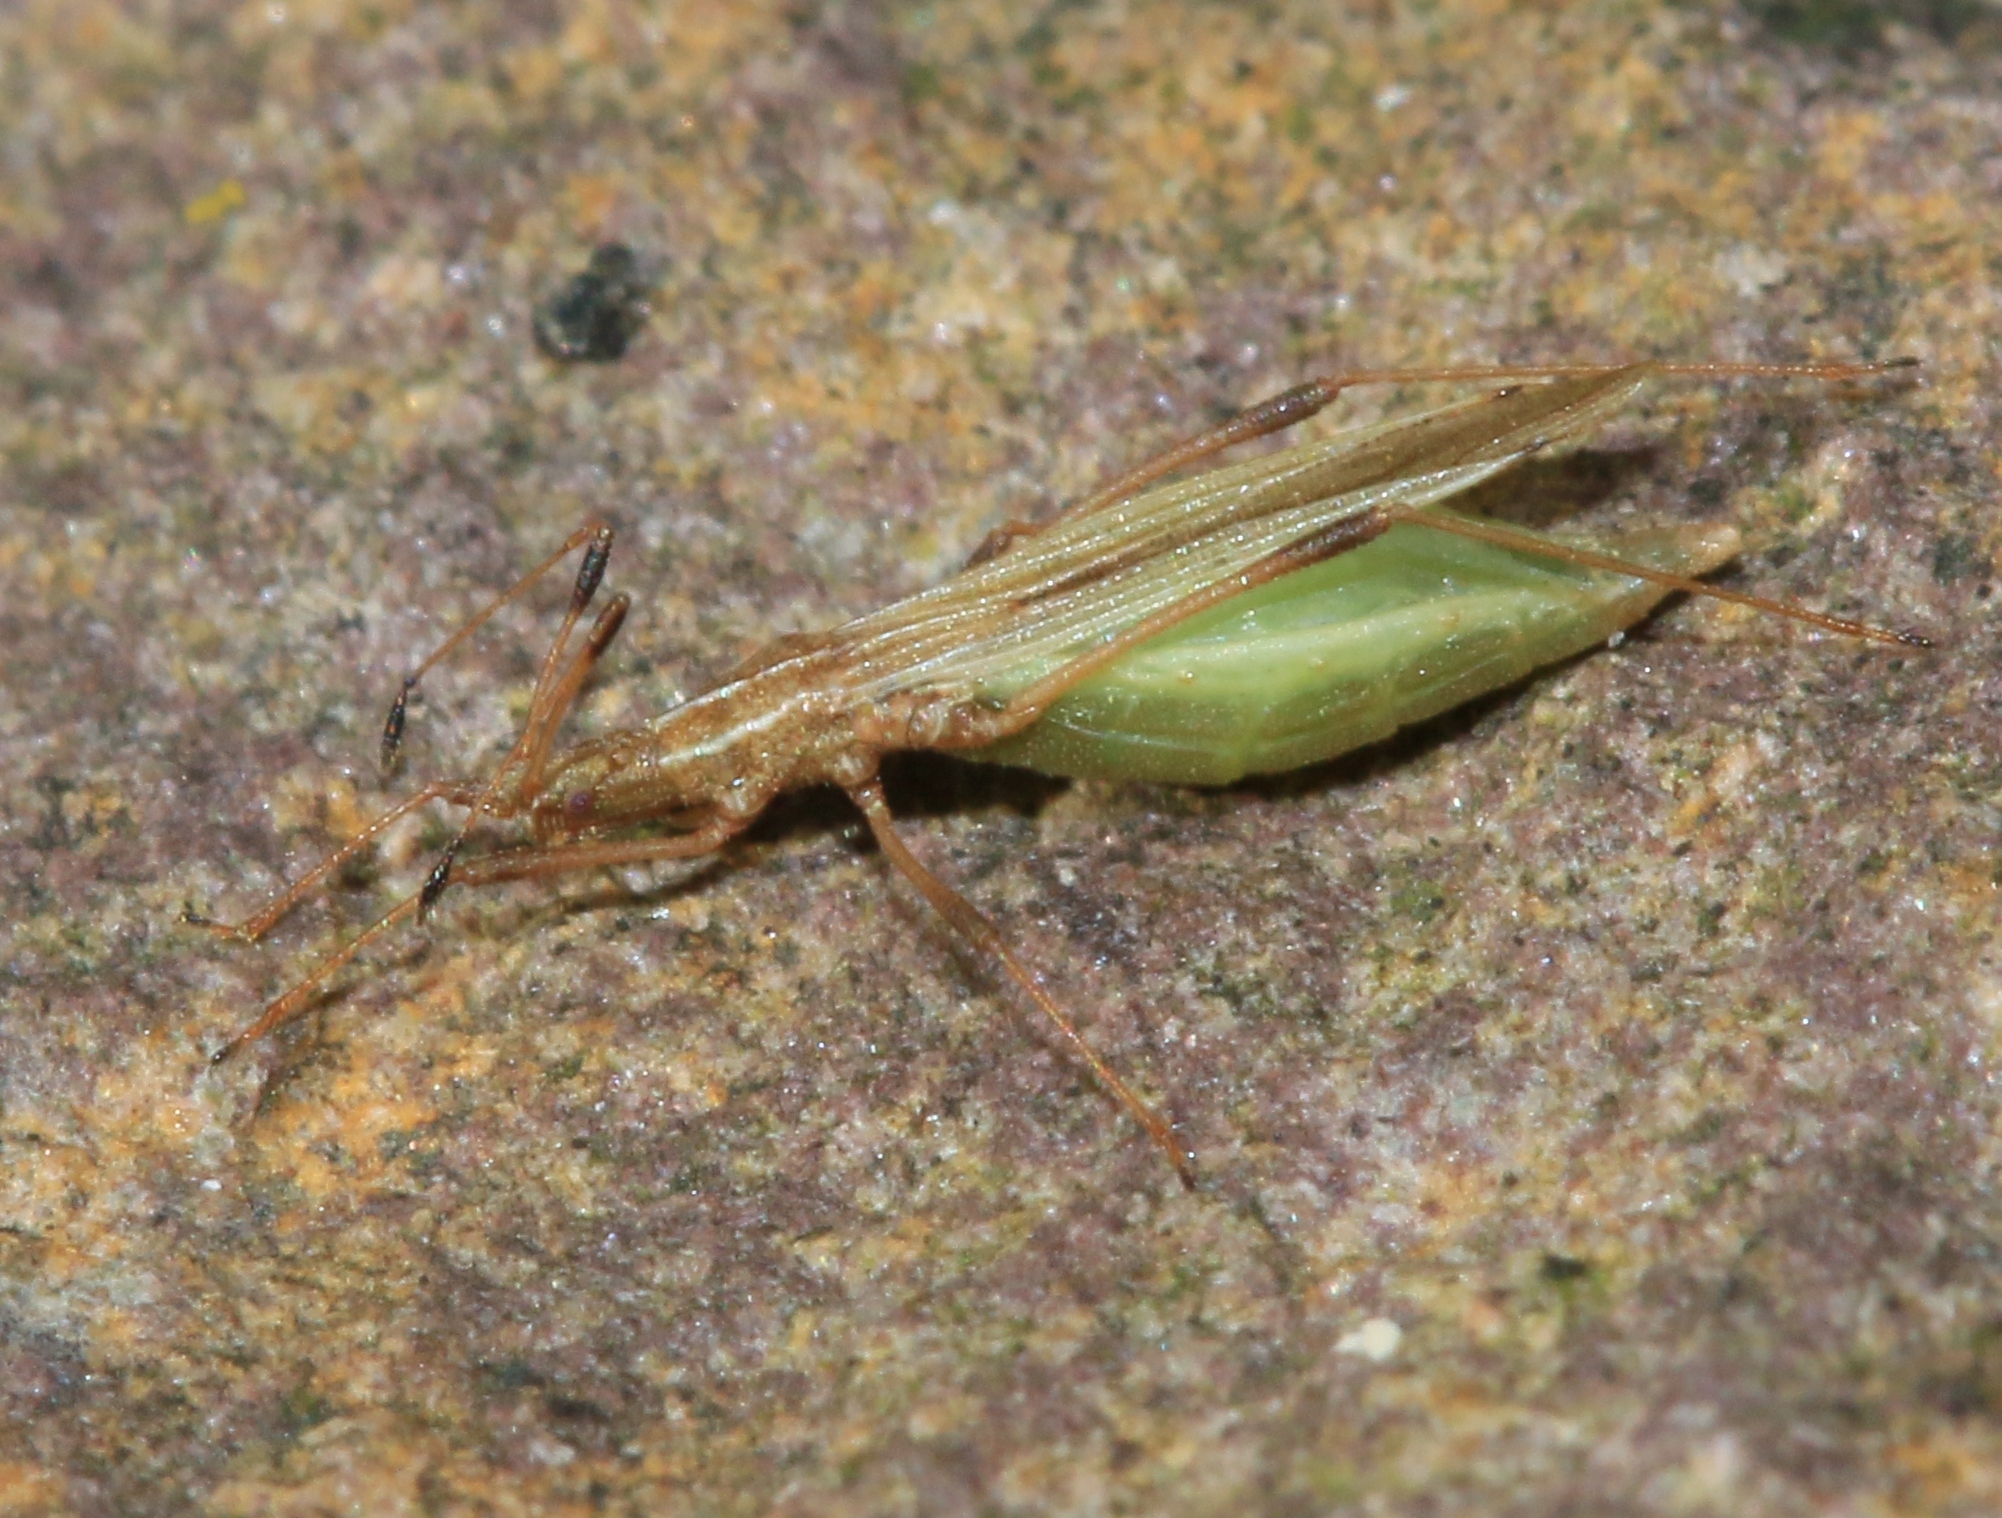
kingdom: Animalia
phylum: Arthropoda
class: Insecta
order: Hemiptera
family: Berytidae
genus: Berytinus
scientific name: Berytinus minor
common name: Stilt bug
